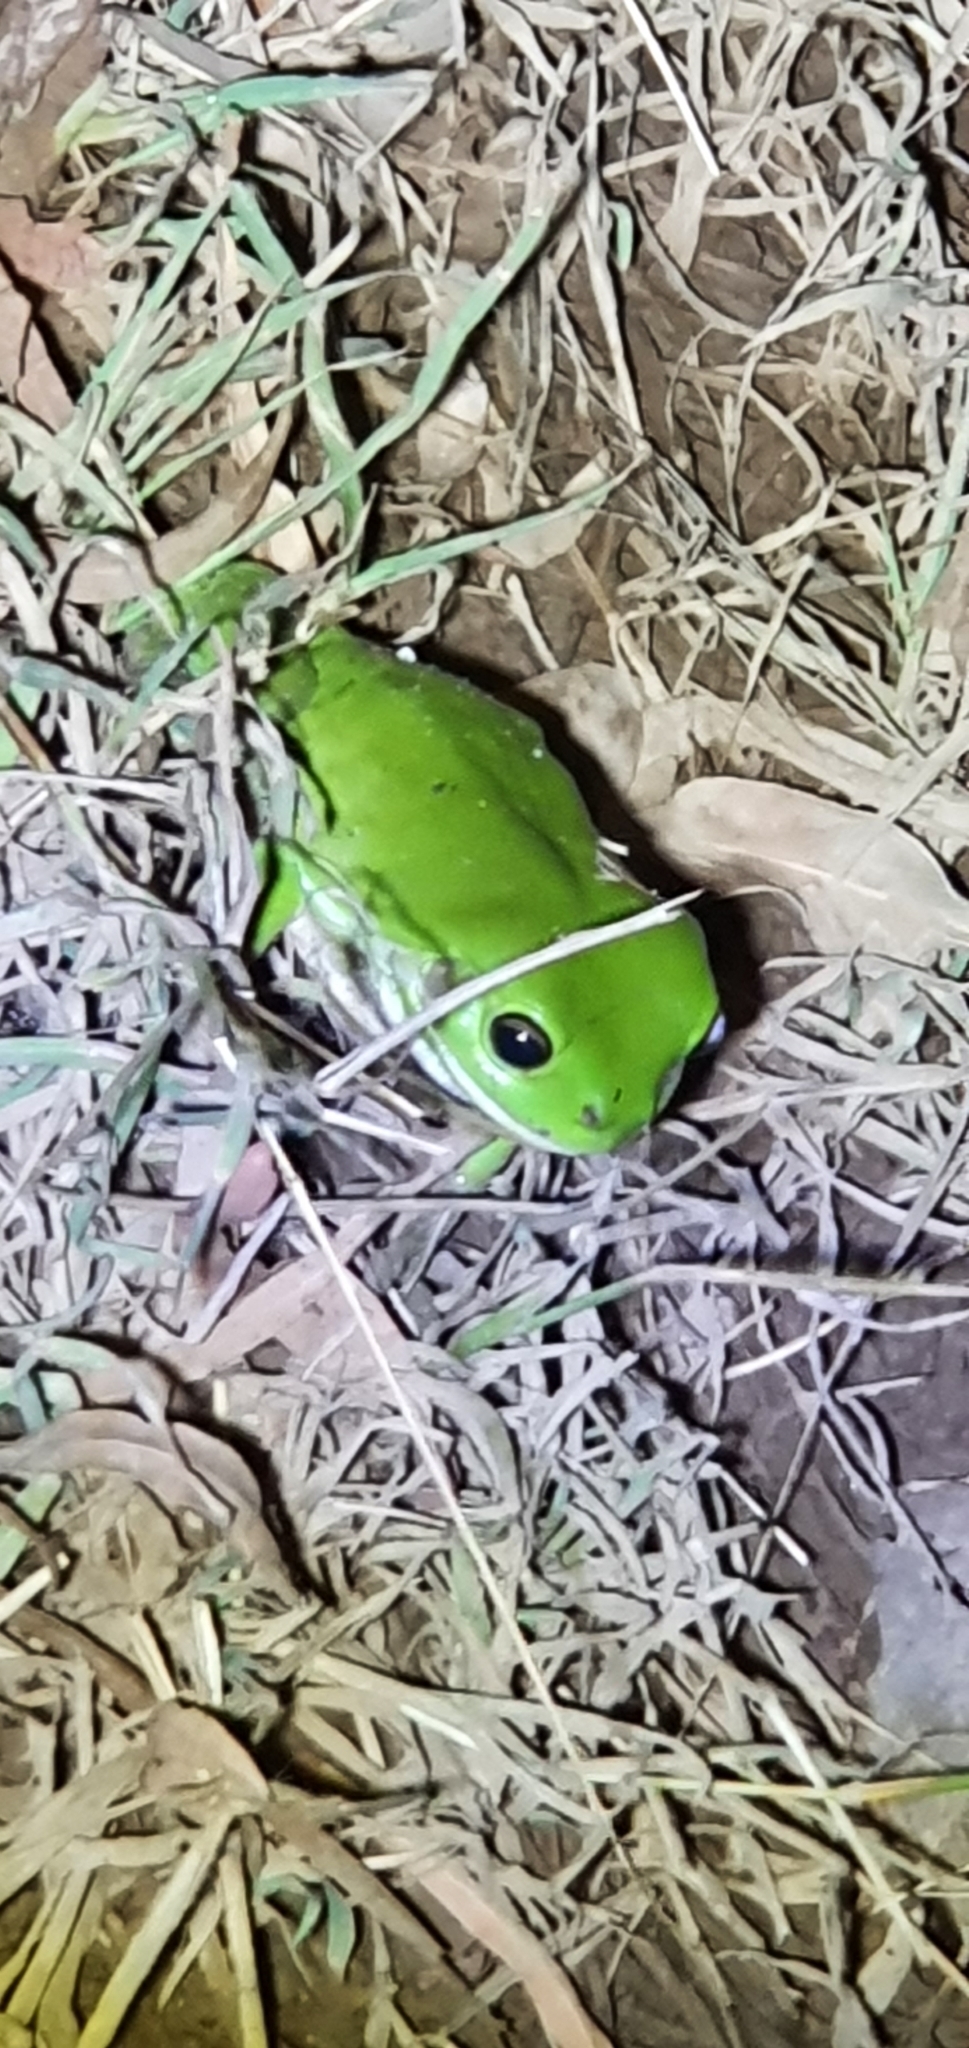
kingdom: Animalia
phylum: Chordata
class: Amphibia
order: Anura
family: Pelodryadidae
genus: Ranoidea
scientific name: Ranoidea caerulea
